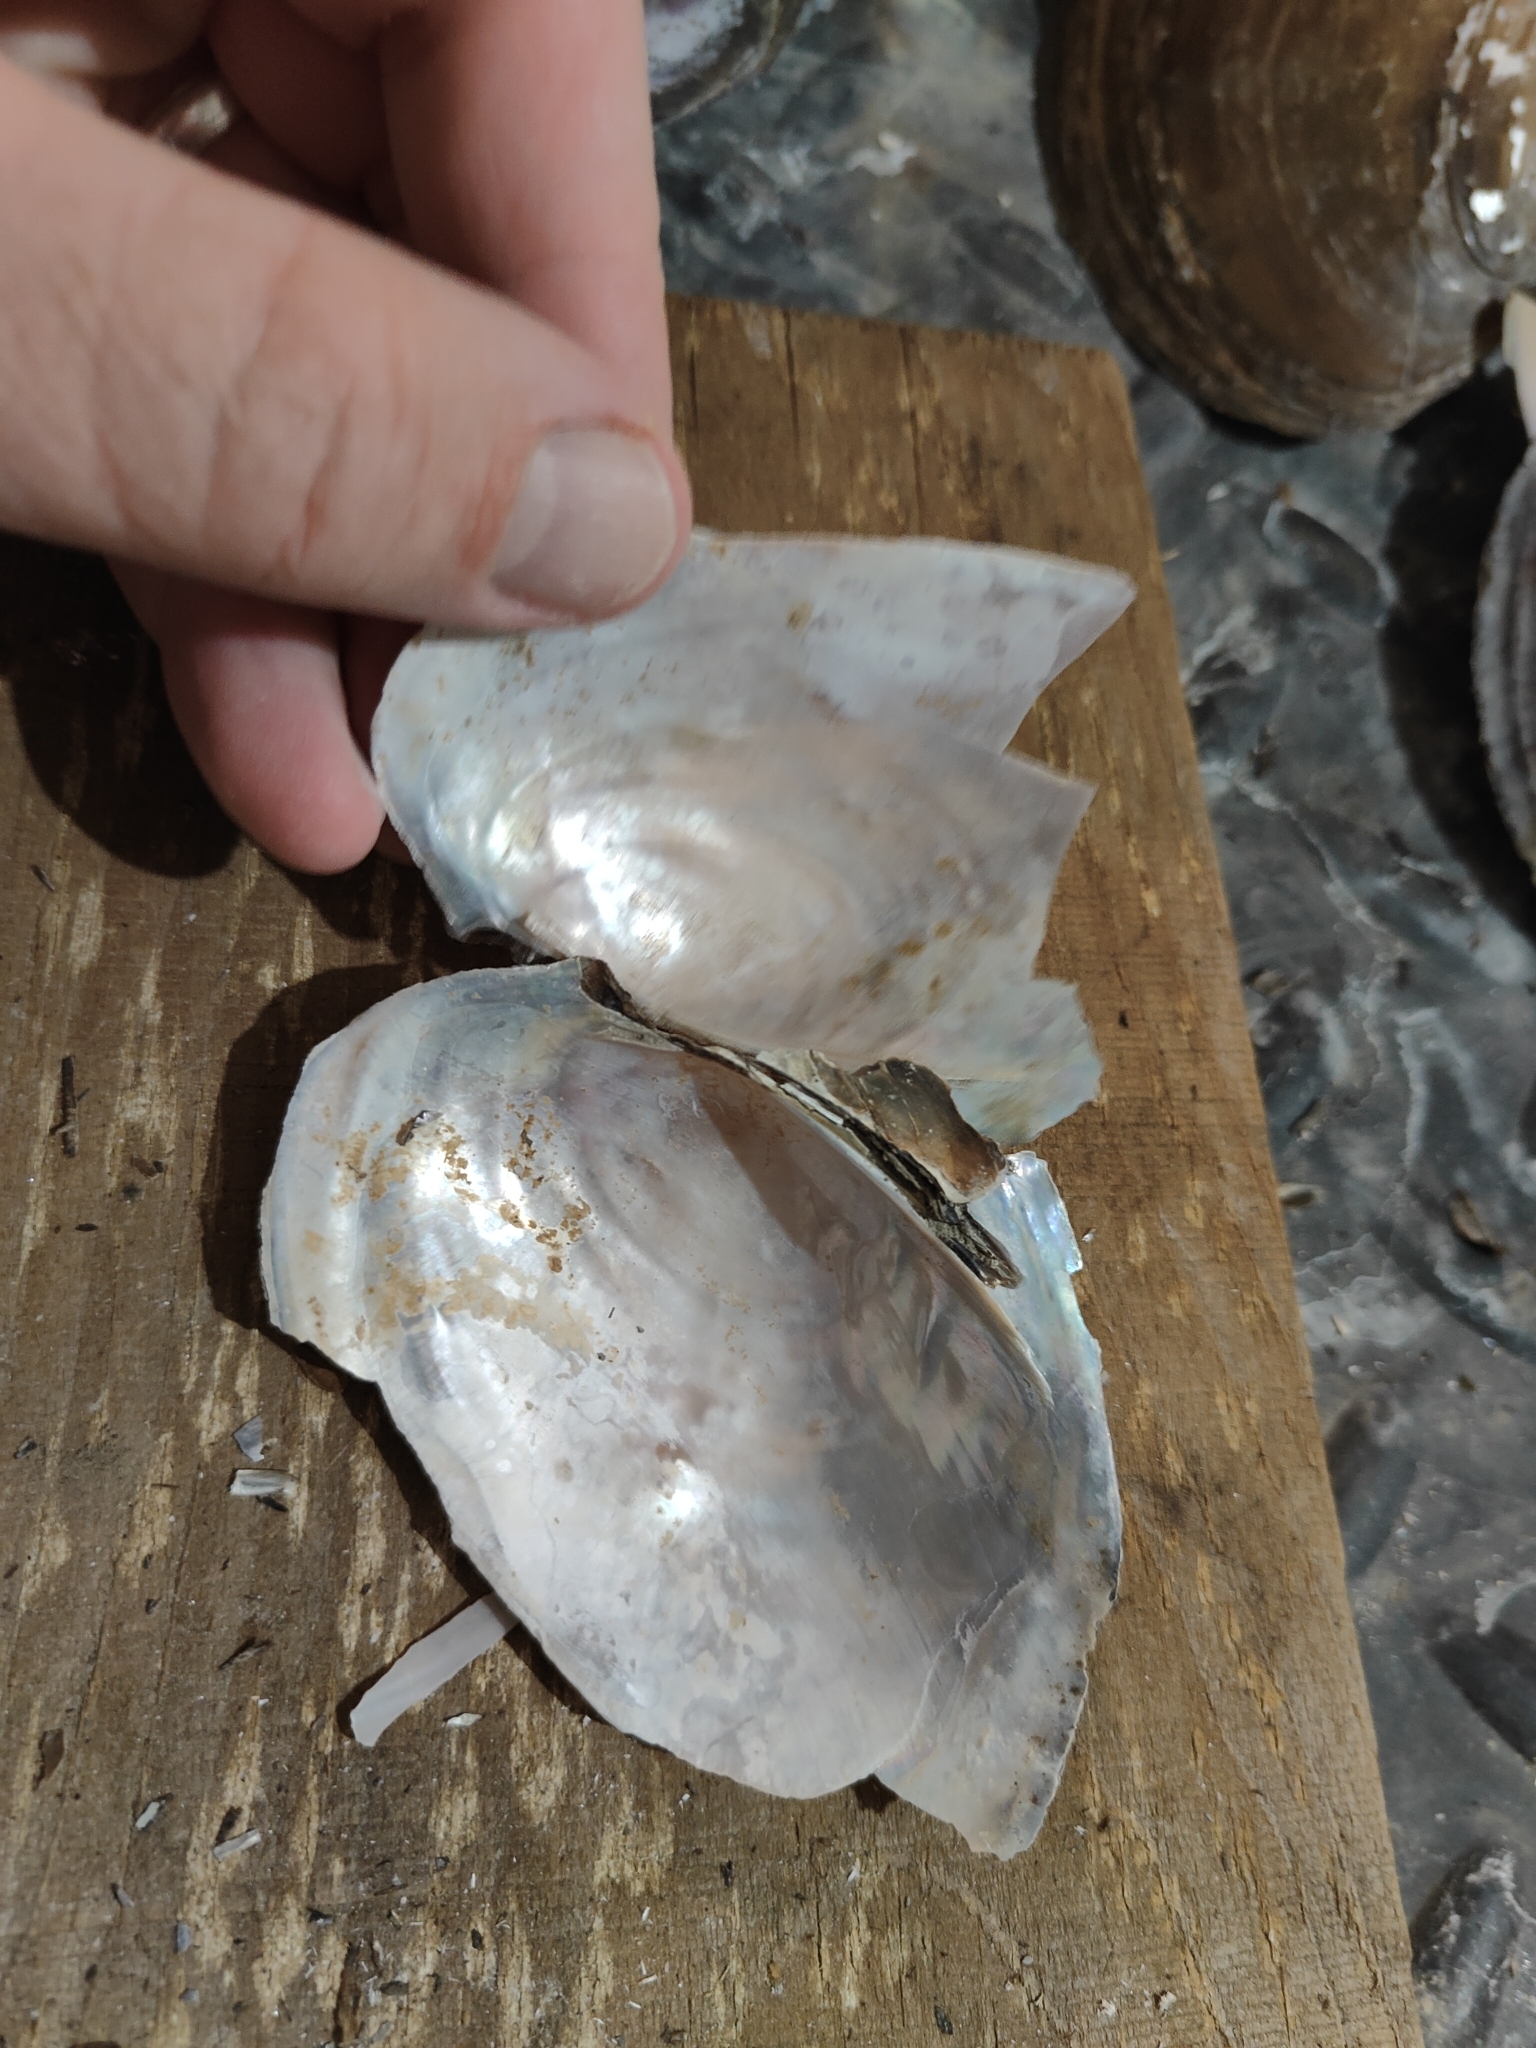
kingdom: Animalia
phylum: Mollusca
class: Bivalvia
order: Unionida
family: Unionidae
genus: Potamilus
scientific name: Potamilus ohiensis
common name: Pink papershell
